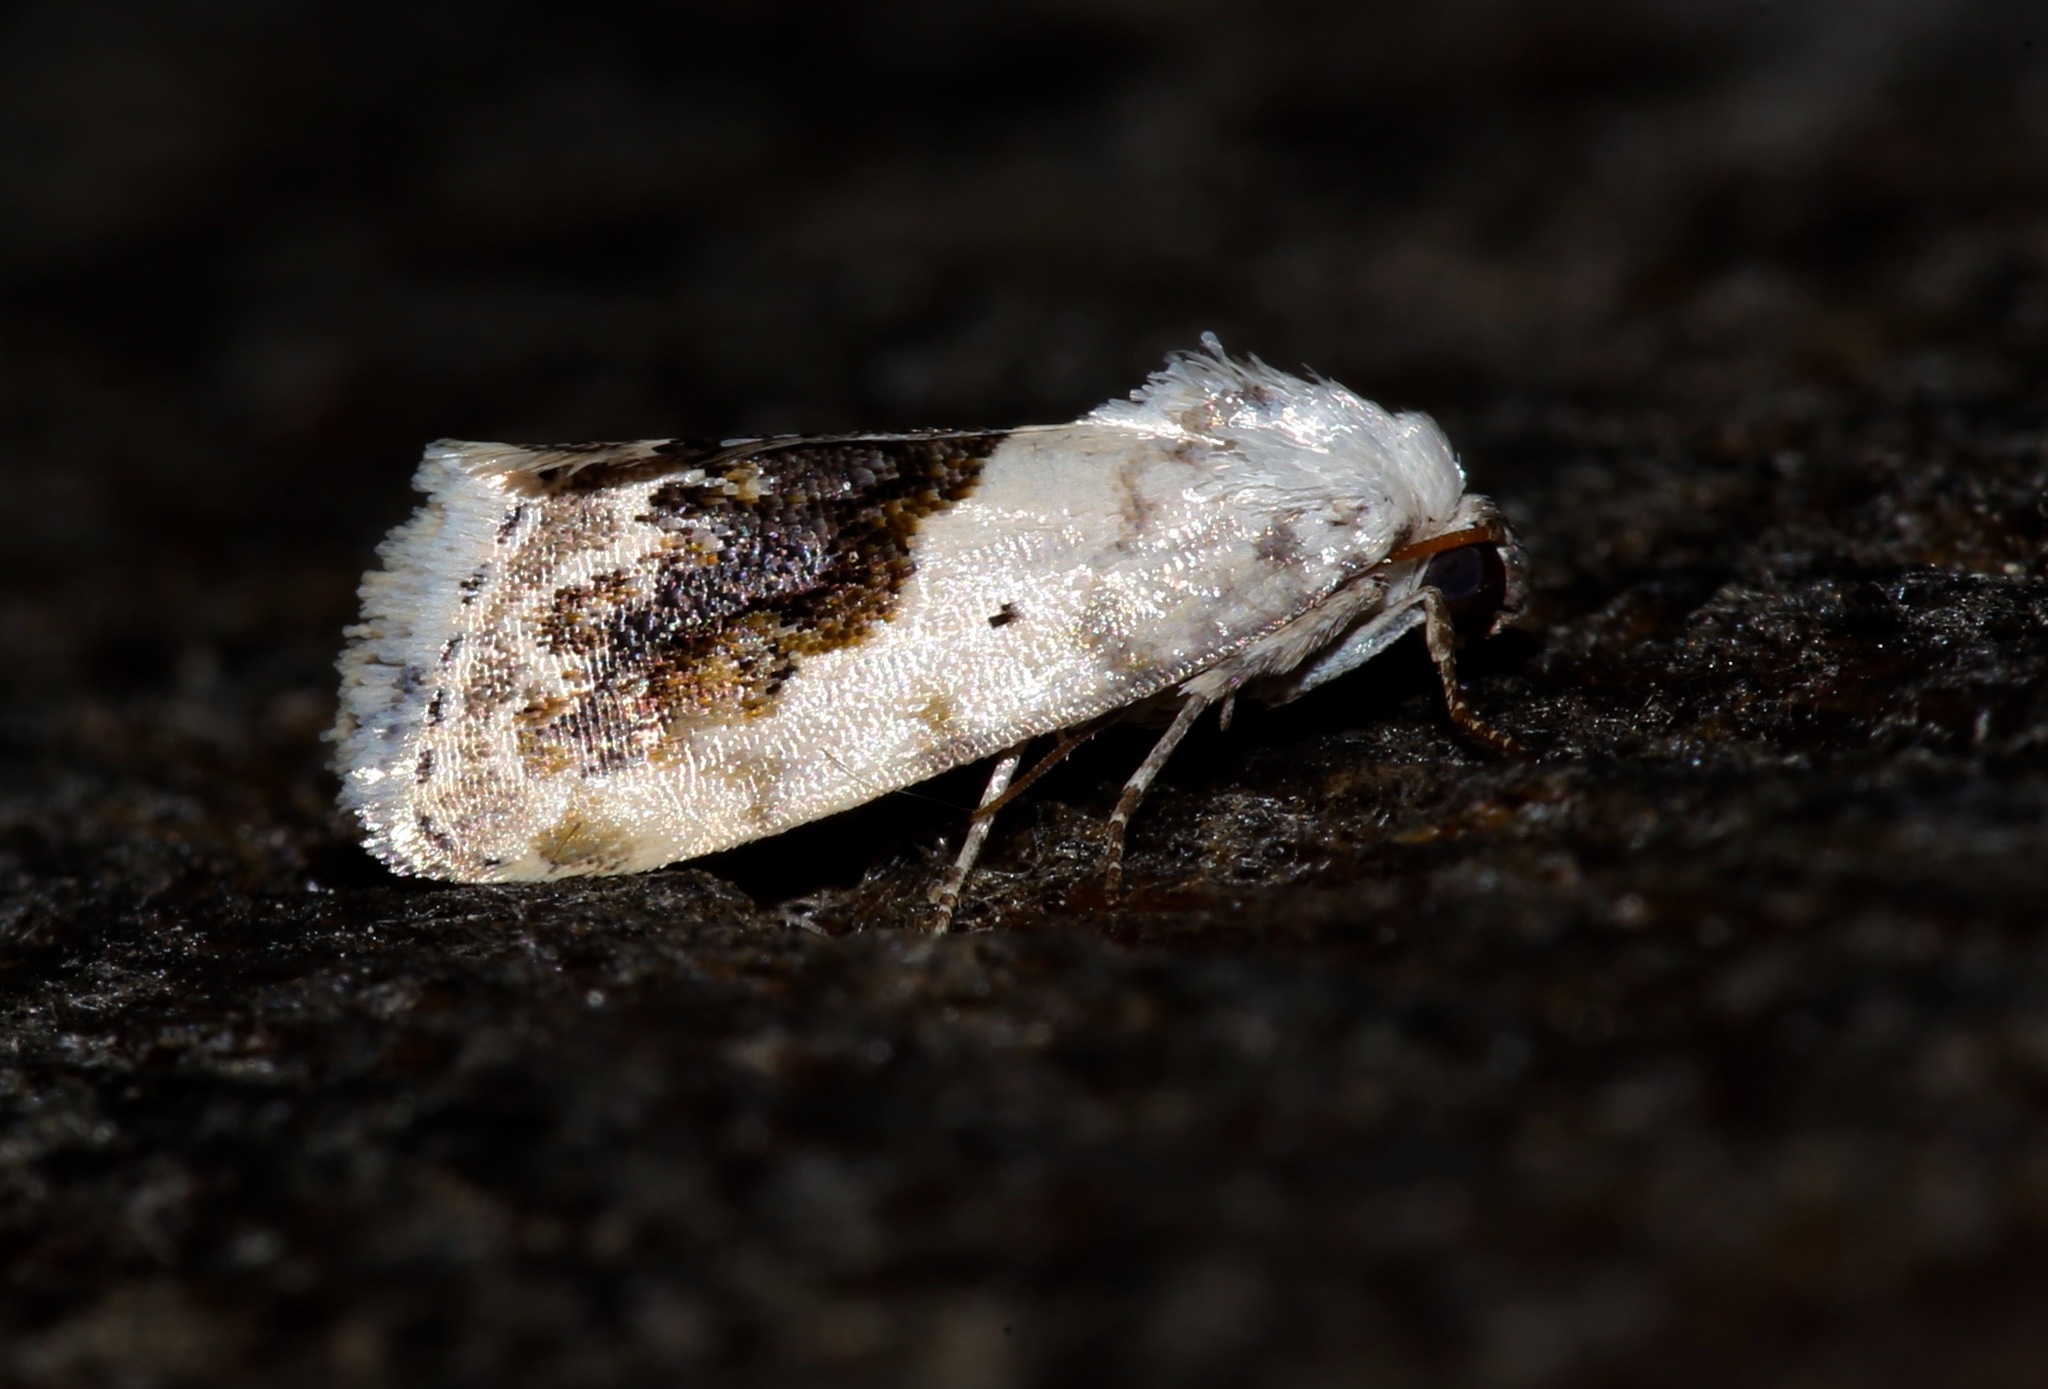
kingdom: Animalia
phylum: Arthropoda
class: Insecta
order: Lepidoptera
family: Noctuidae
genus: Acontia
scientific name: Acontia erastrioides
